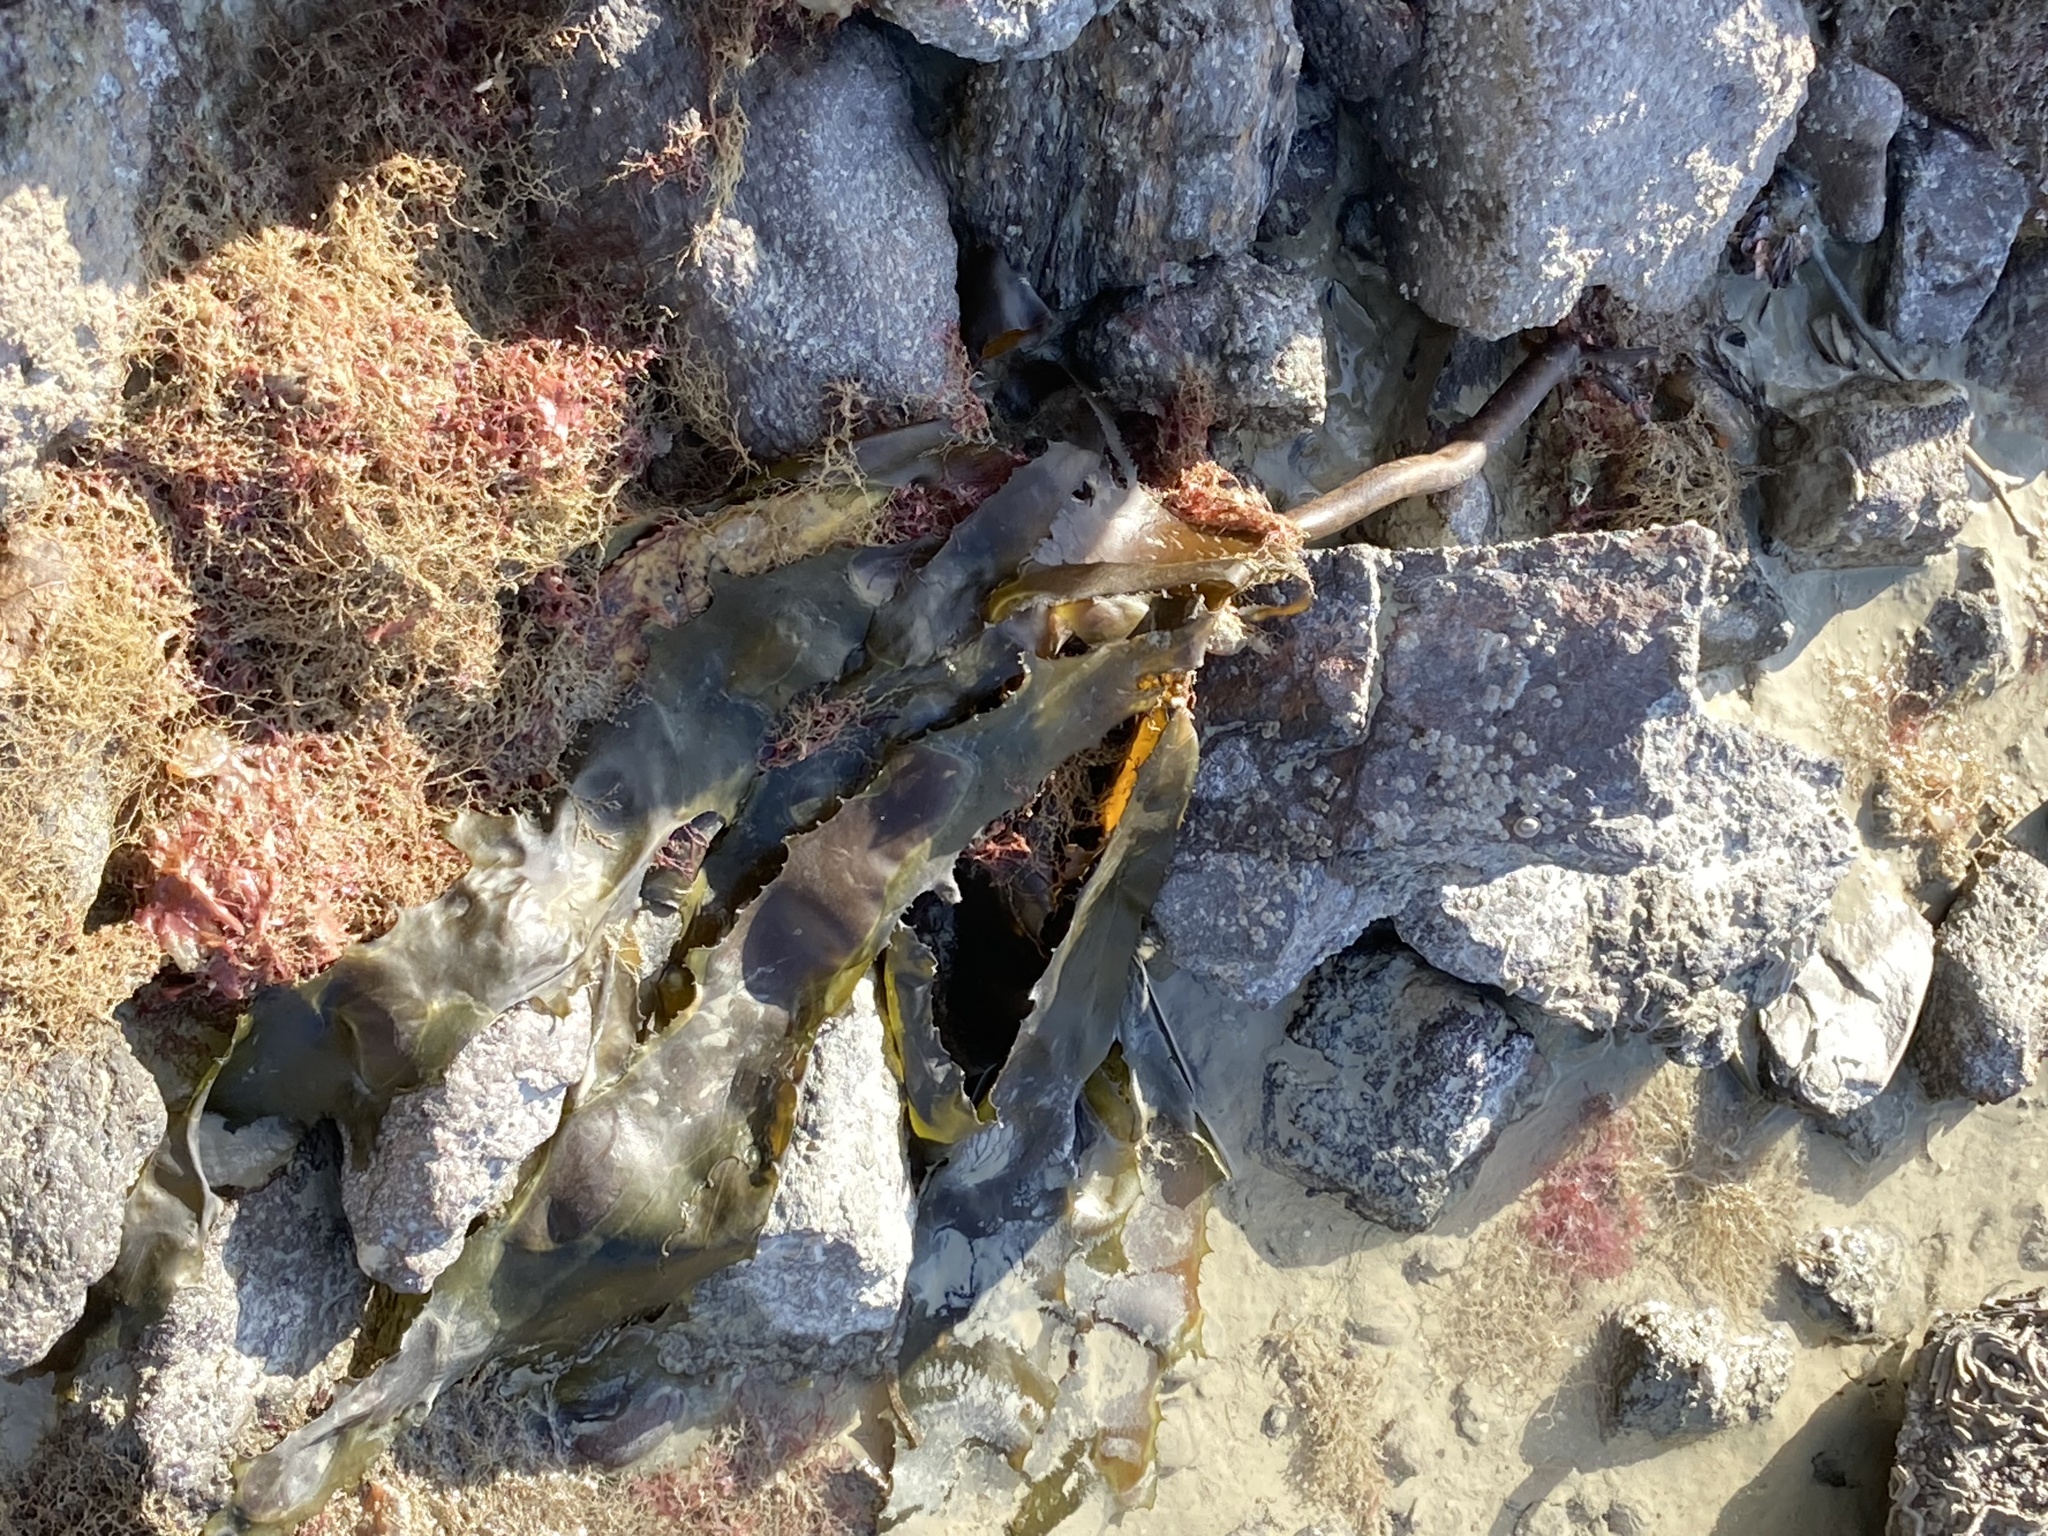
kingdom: Chromista
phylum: Ochrophyta
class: Phaeophyceae
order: Laminariales
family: Lessoniaceae
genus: Ecklonia
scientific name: Ecklonia radiata
